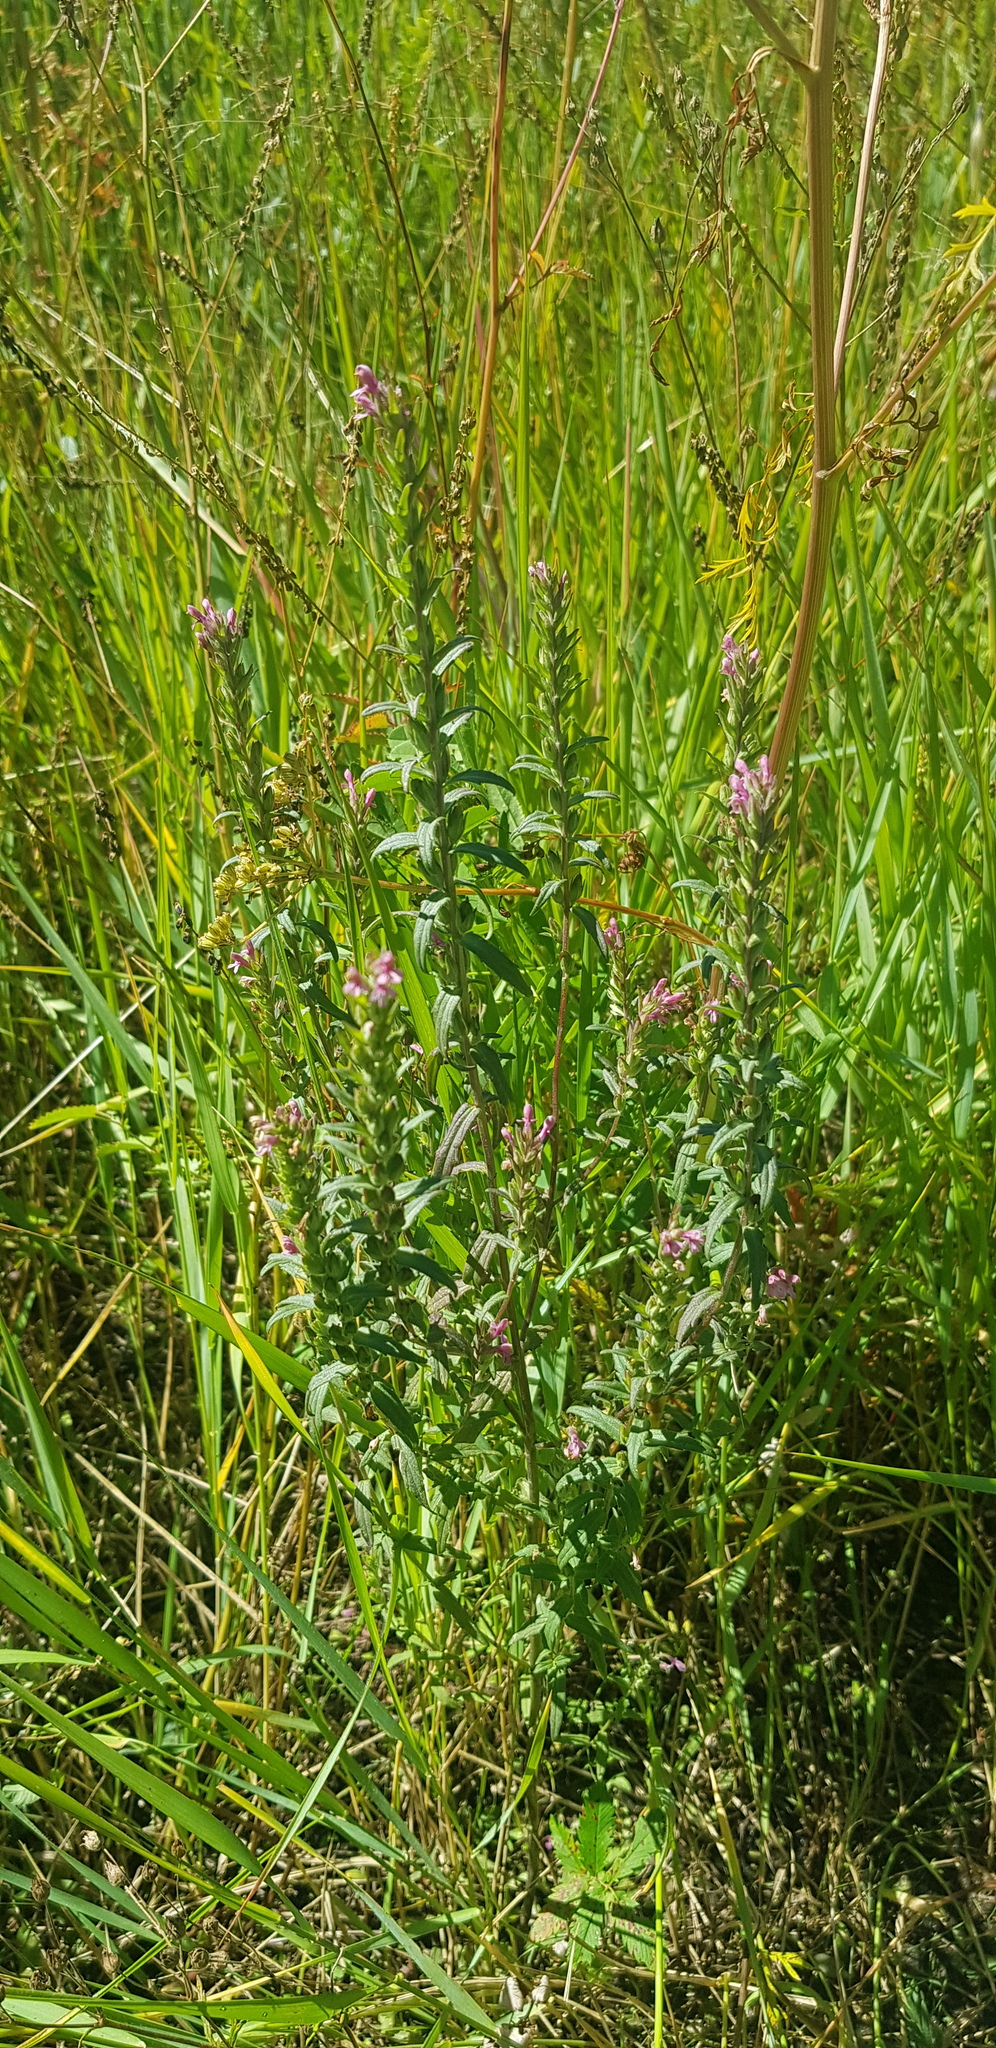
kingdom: Plantae
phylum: Tracheophyta
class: Magnoliopsida
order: Lamiales
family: Orobanchaceae
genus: Odontites
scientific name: Odontites vulgaris
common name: Broomrape
